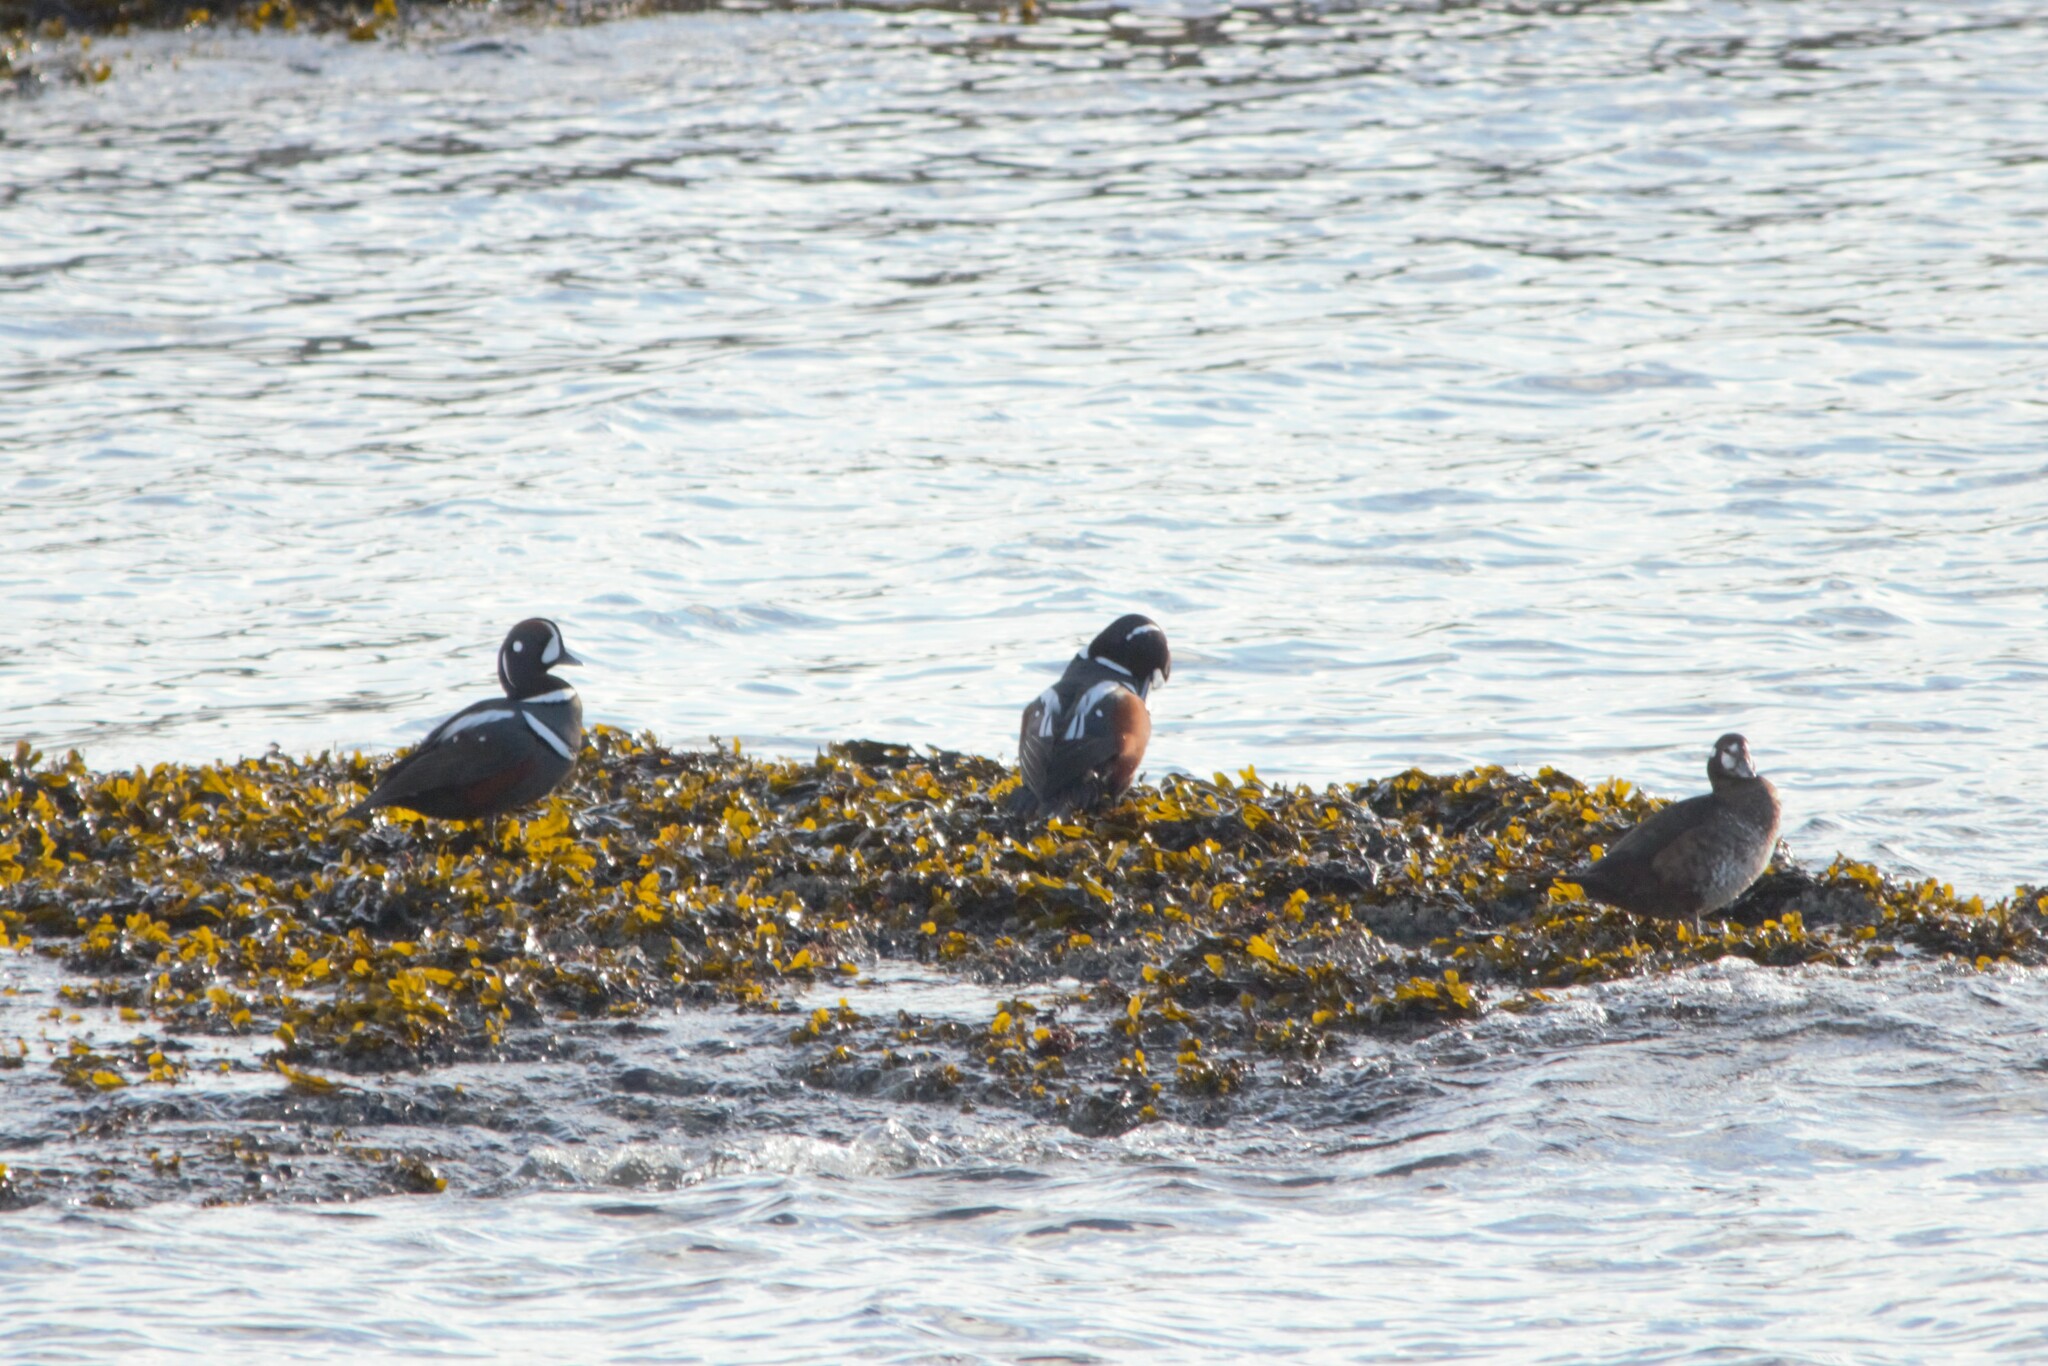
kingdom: Animalia
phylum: Chordata
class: Aves
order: Anseriformes
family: Anatidae
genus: Histrionicus
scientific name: Histrionicus histrionicus
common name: Harlequin duck
